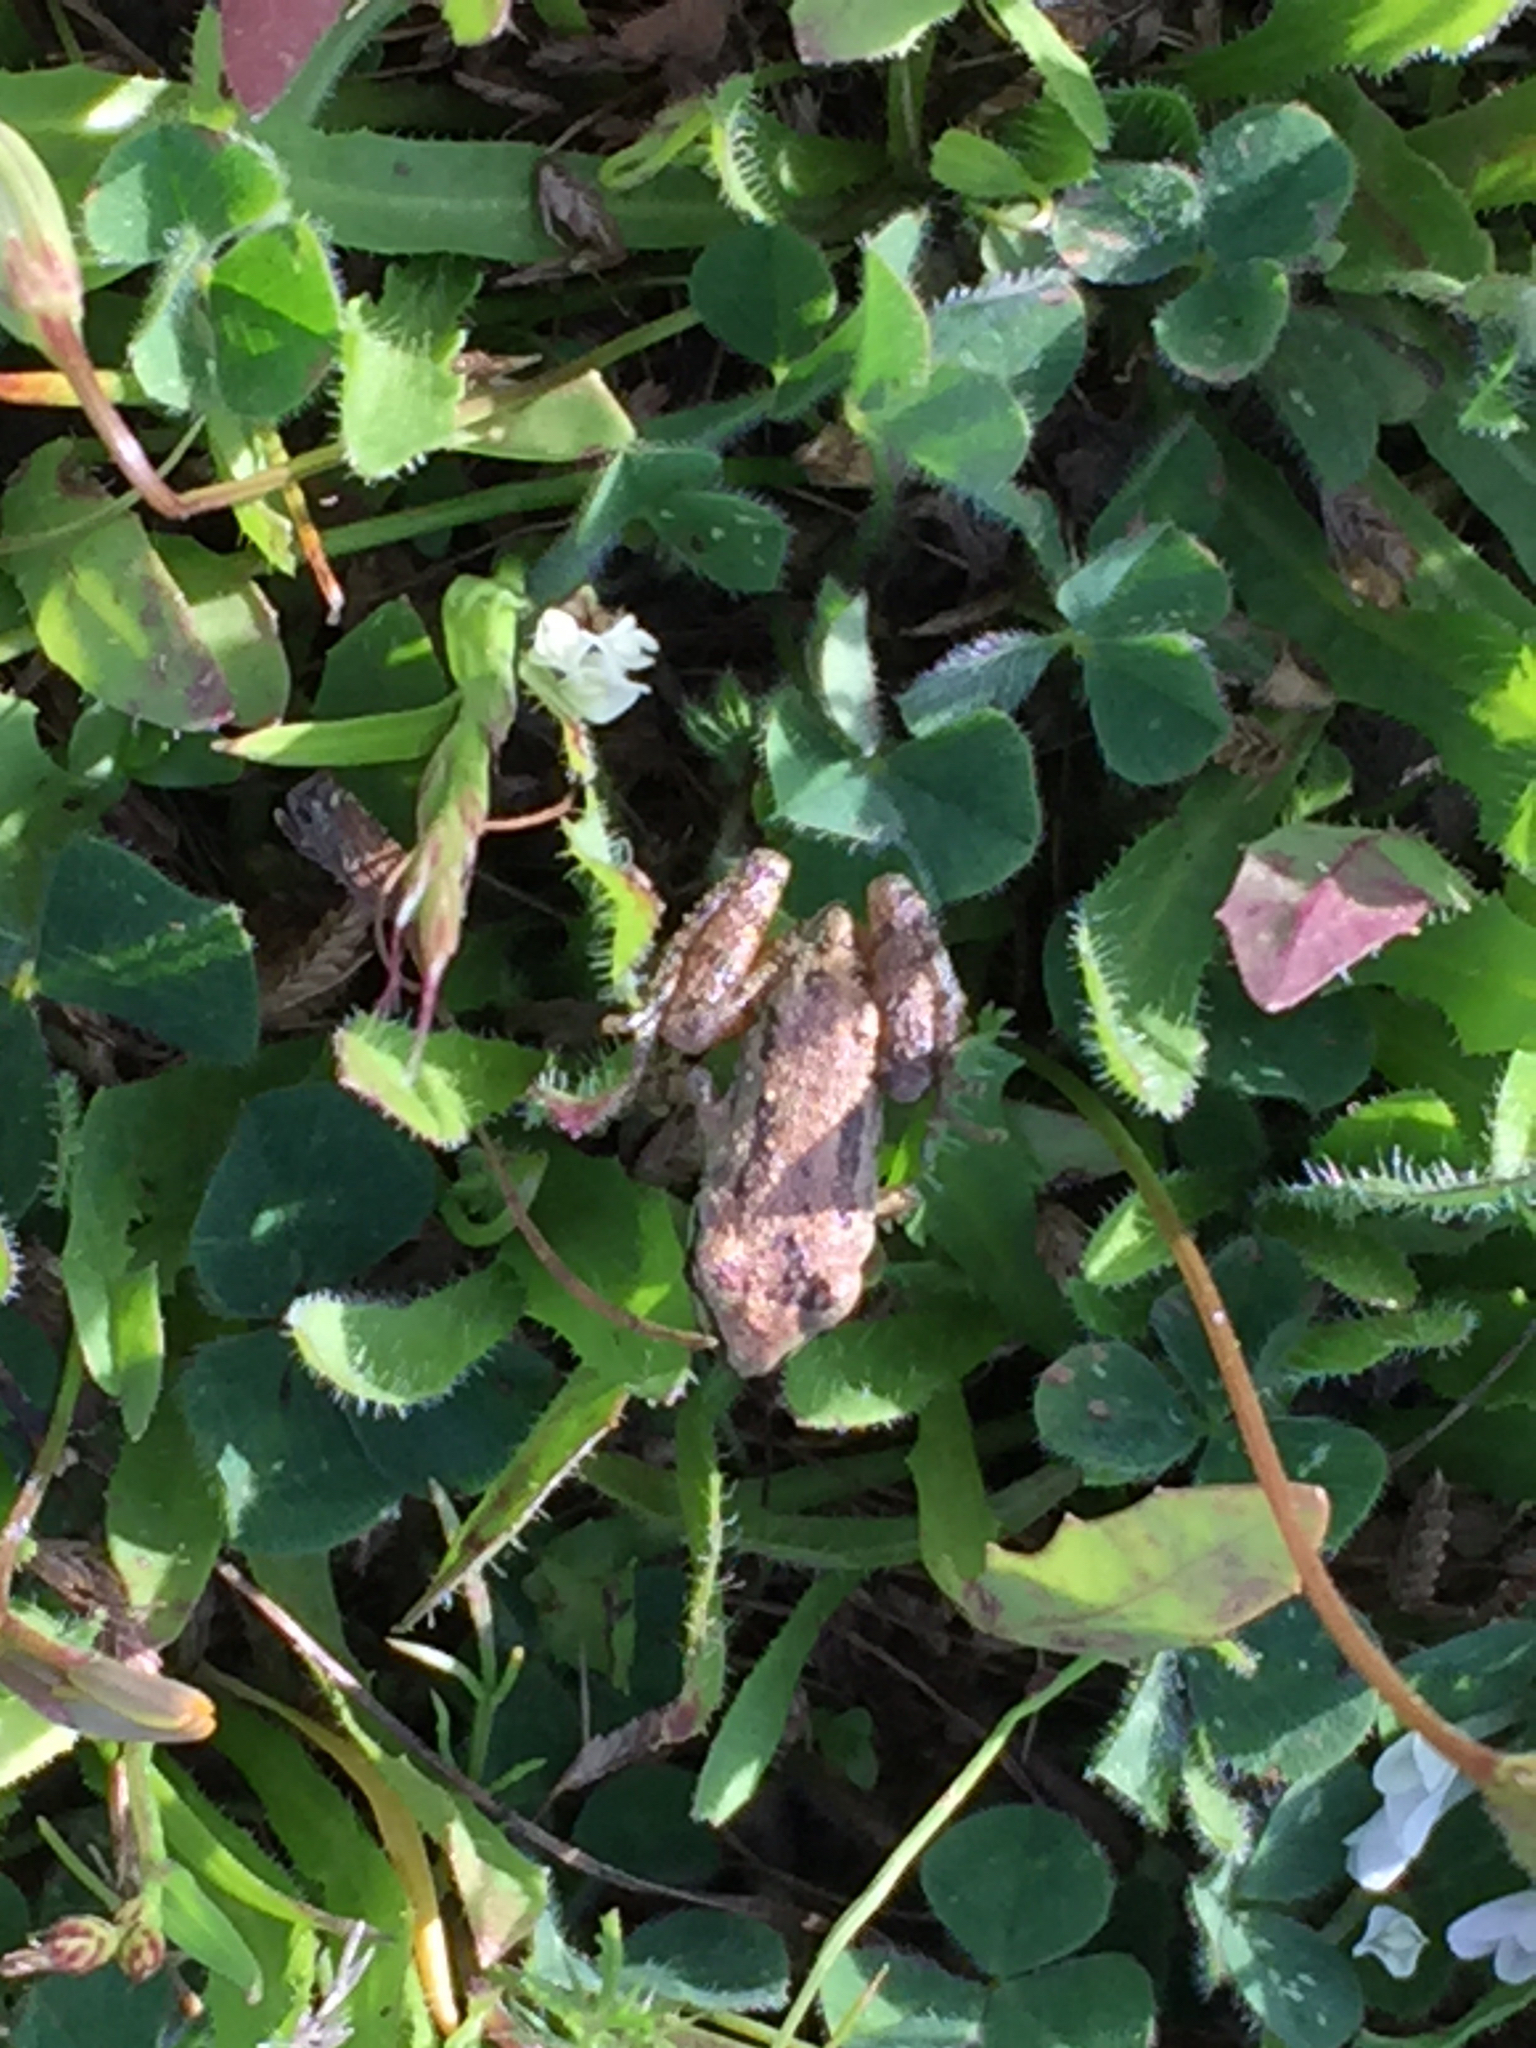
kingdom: Animalia
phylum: Chordata
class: Amphibia
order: Anura
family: Hylidae
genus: Pseudacris
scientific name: Pseudacris regilla
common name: Pacific chorus frog
